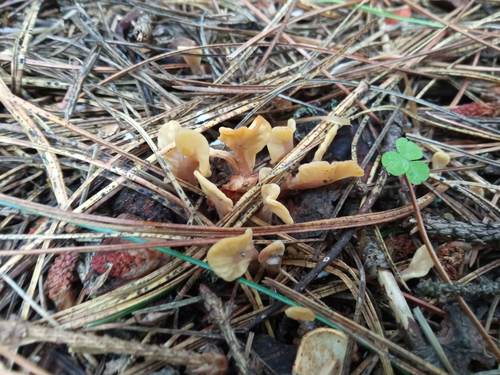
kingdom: Fungi
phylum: Ascomycota
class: Leotiomycetes
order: Rhytismatales
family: Cudoniaceae
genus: Spathularia
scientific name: Spathularia rufa
